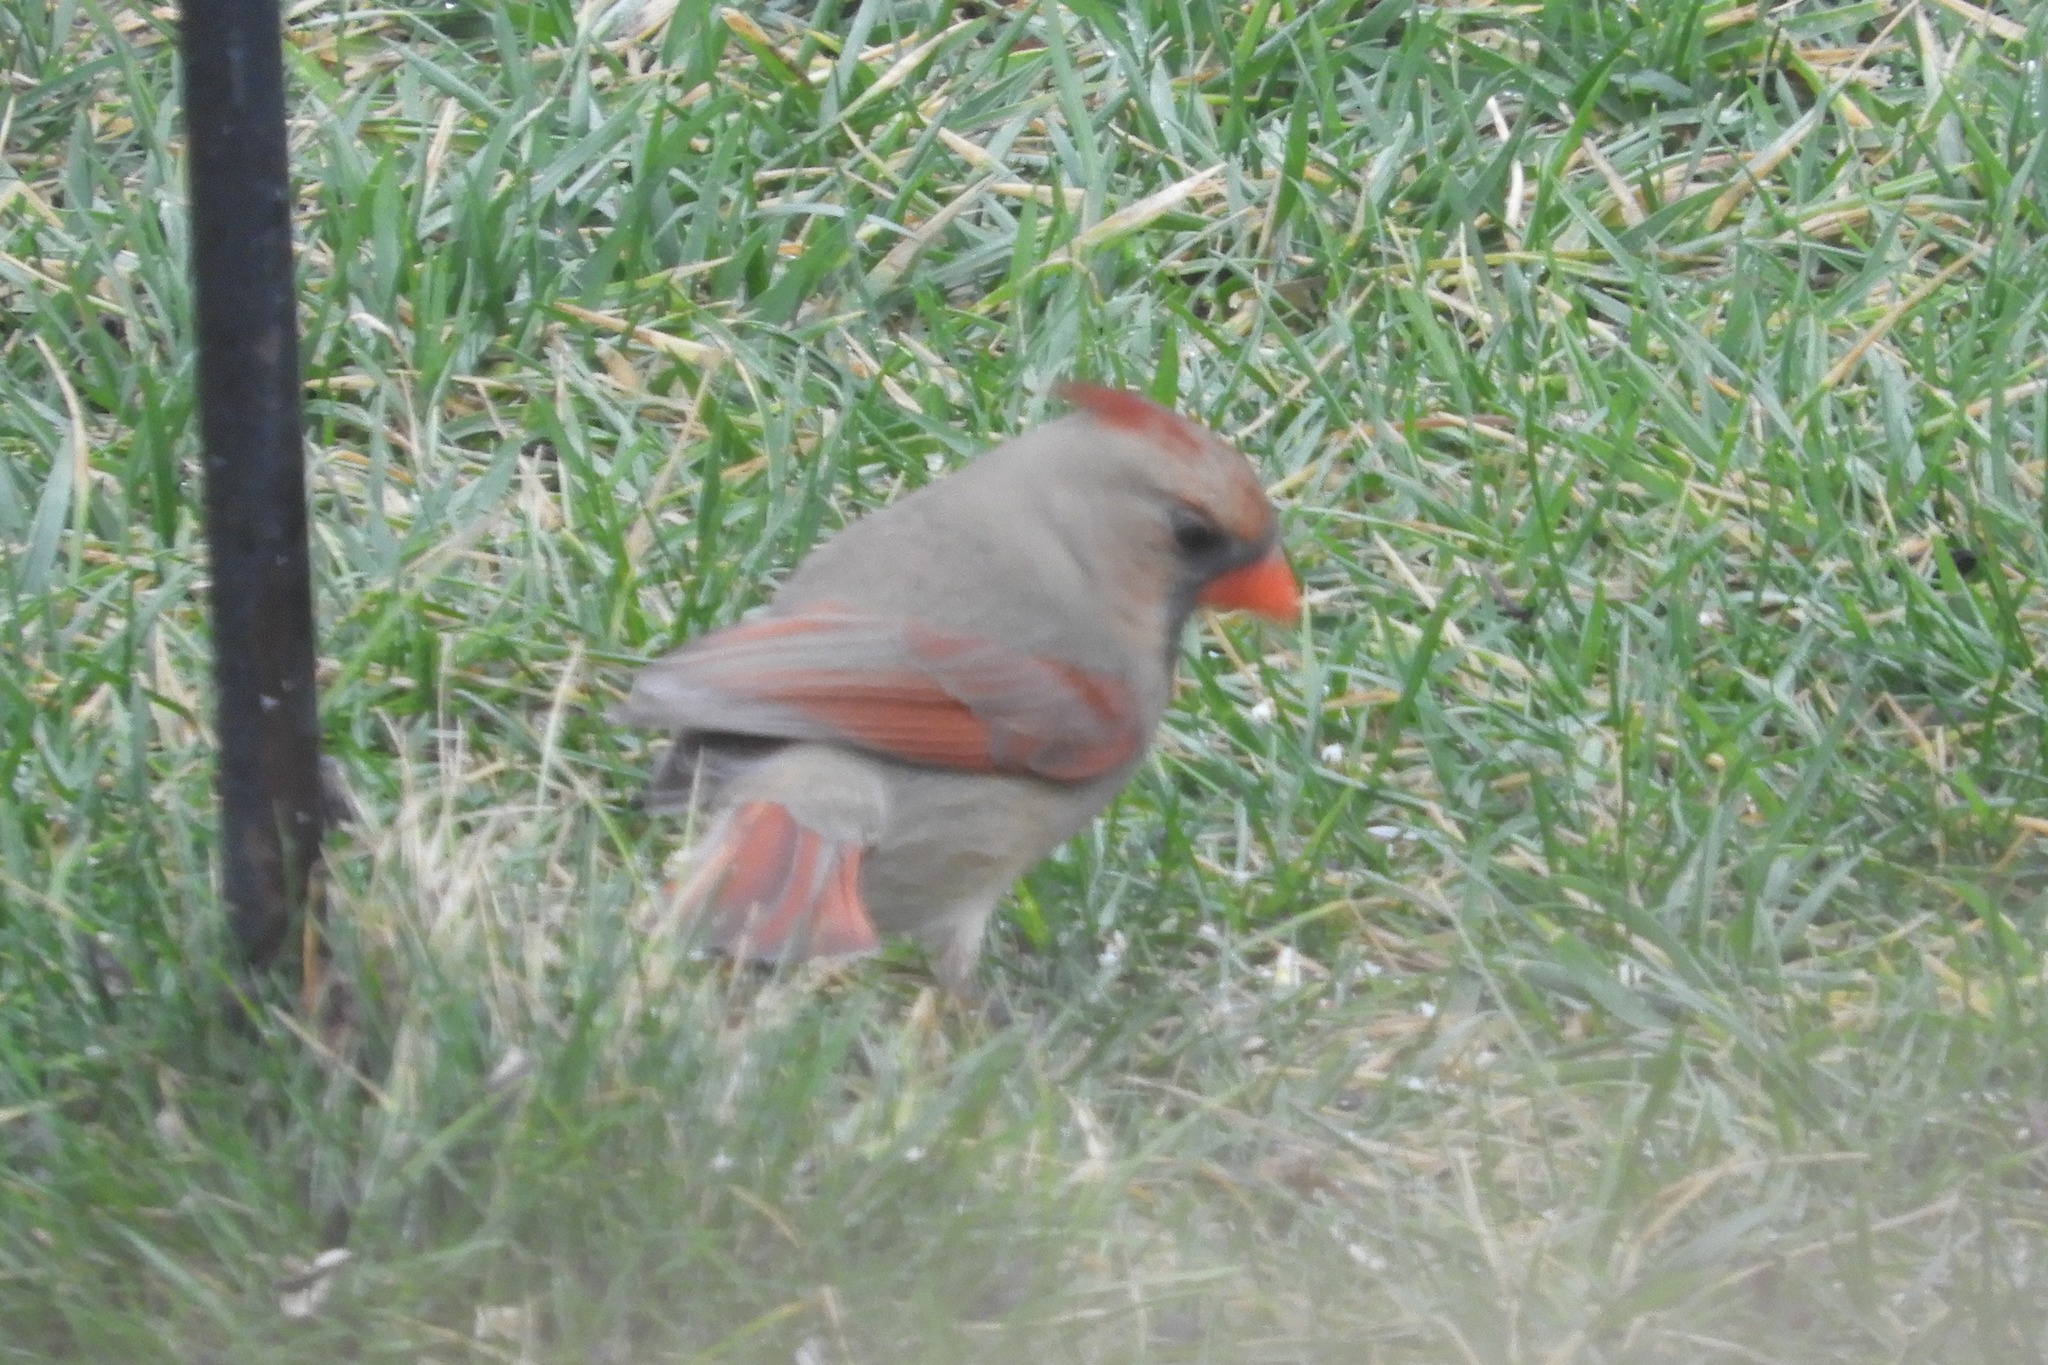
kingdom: Animalia
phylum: Chordata
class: Aves
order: Passeriformes
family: Cardinalidae
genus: Cardinalis
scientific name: Cardinalis cardinalis
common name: Northern cardinal
